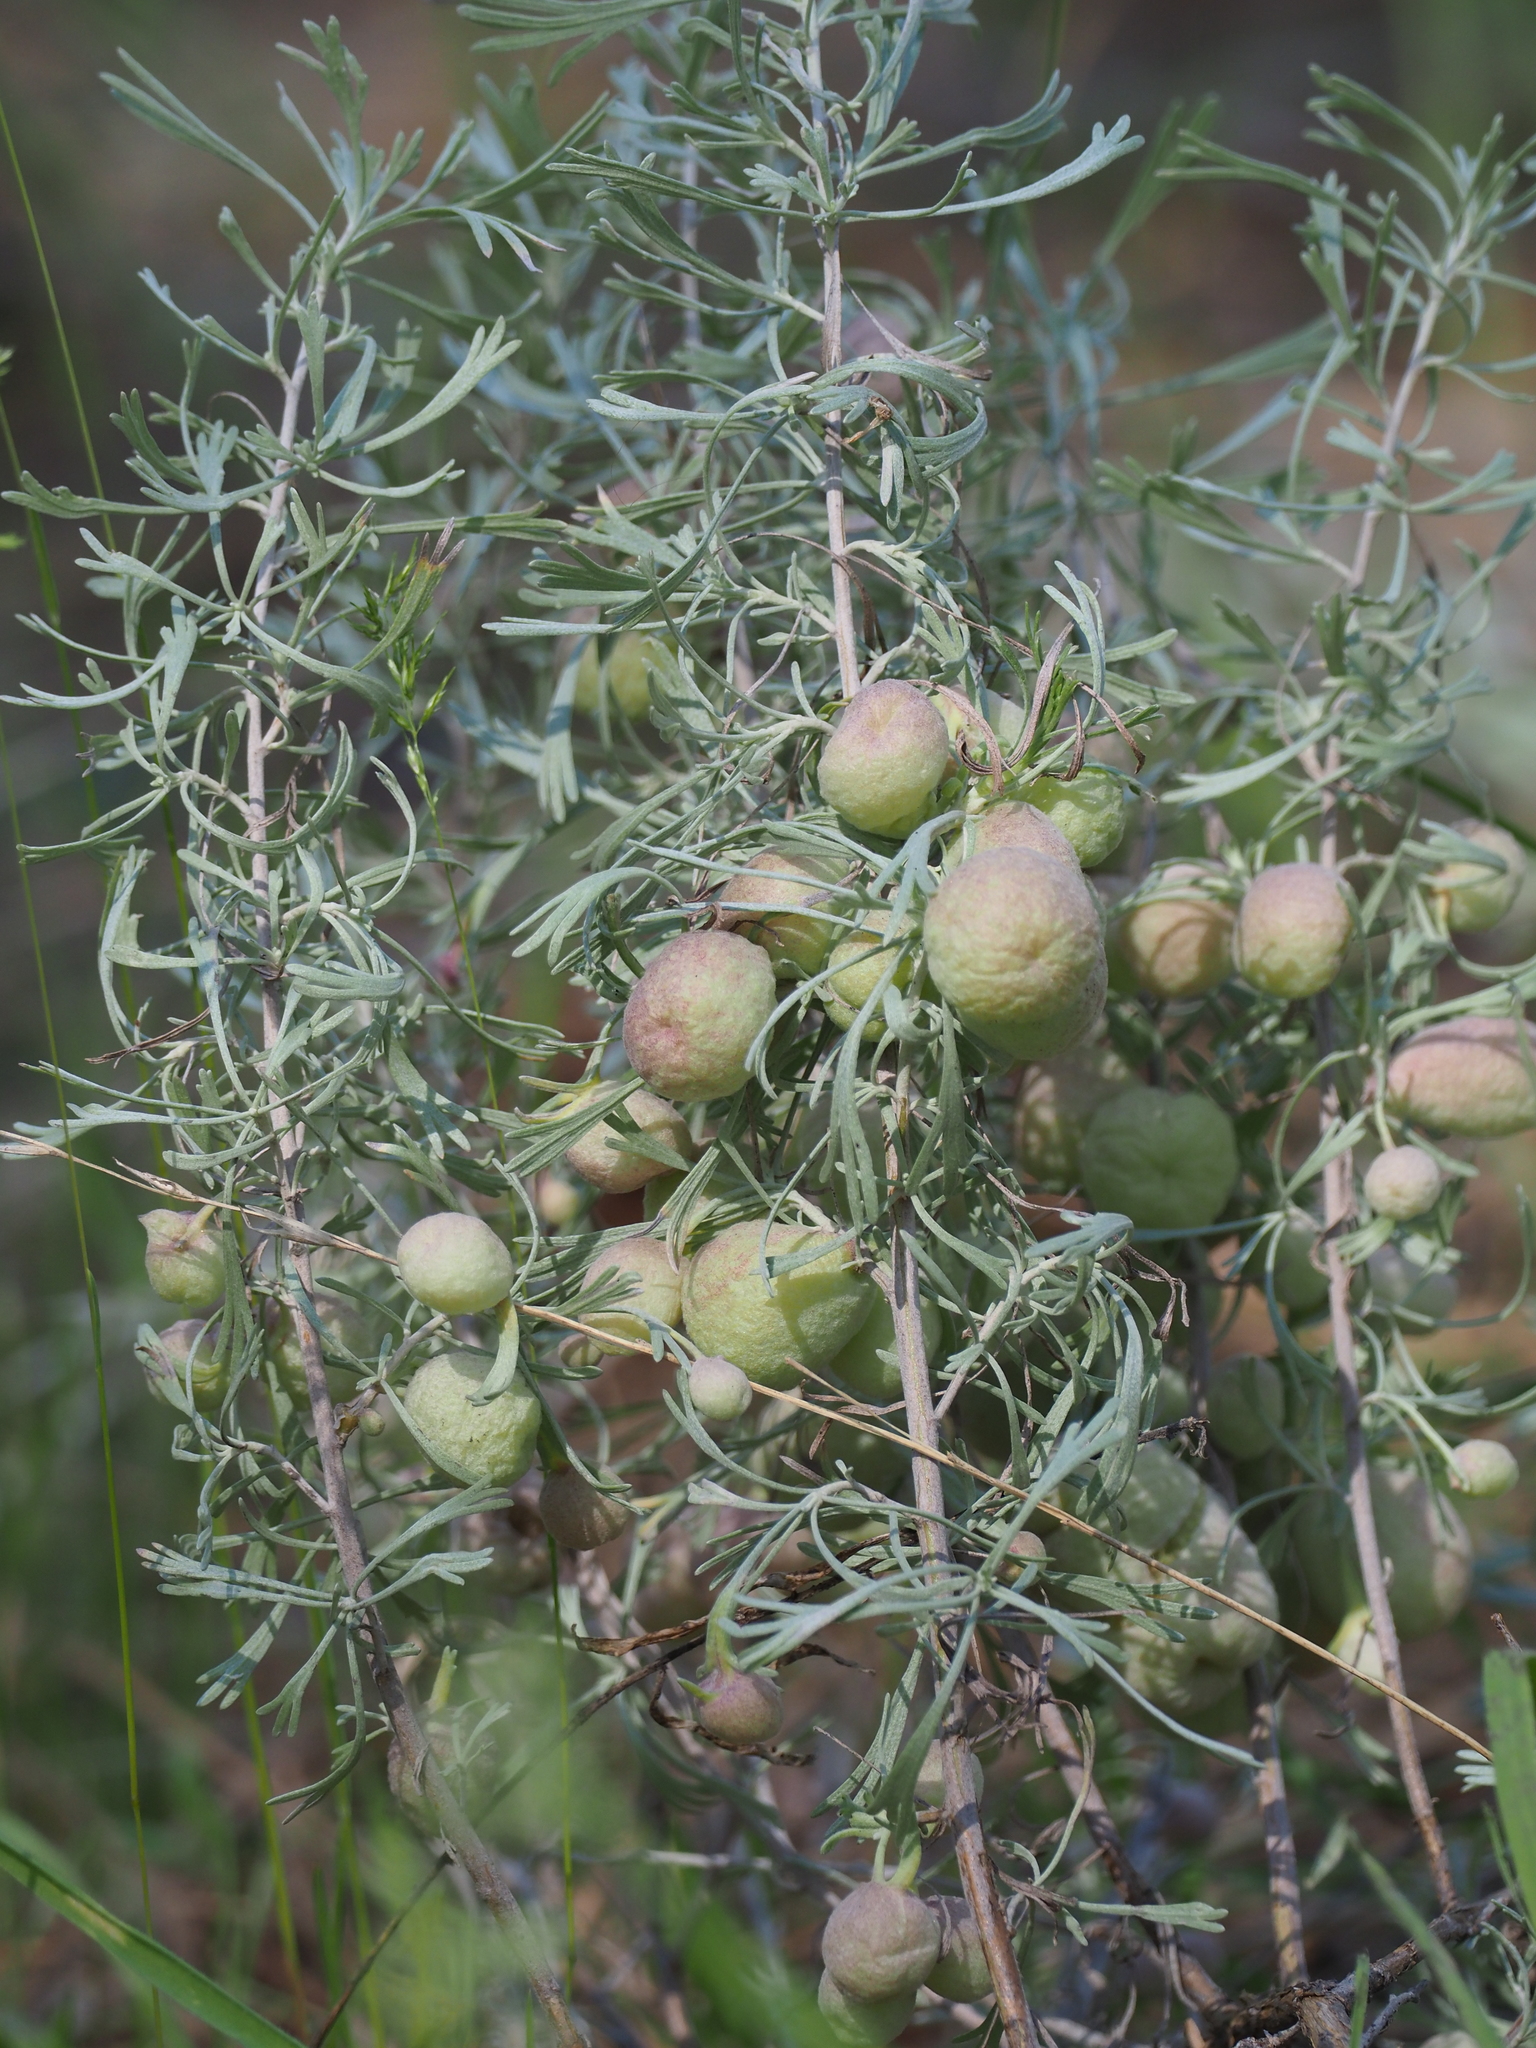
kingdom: Animalia
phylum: Arthropoda
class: Insecta
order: Diptera
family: Cecidomyiidae
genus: Rhopalomyia
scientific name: Rhopalomyia pomum
